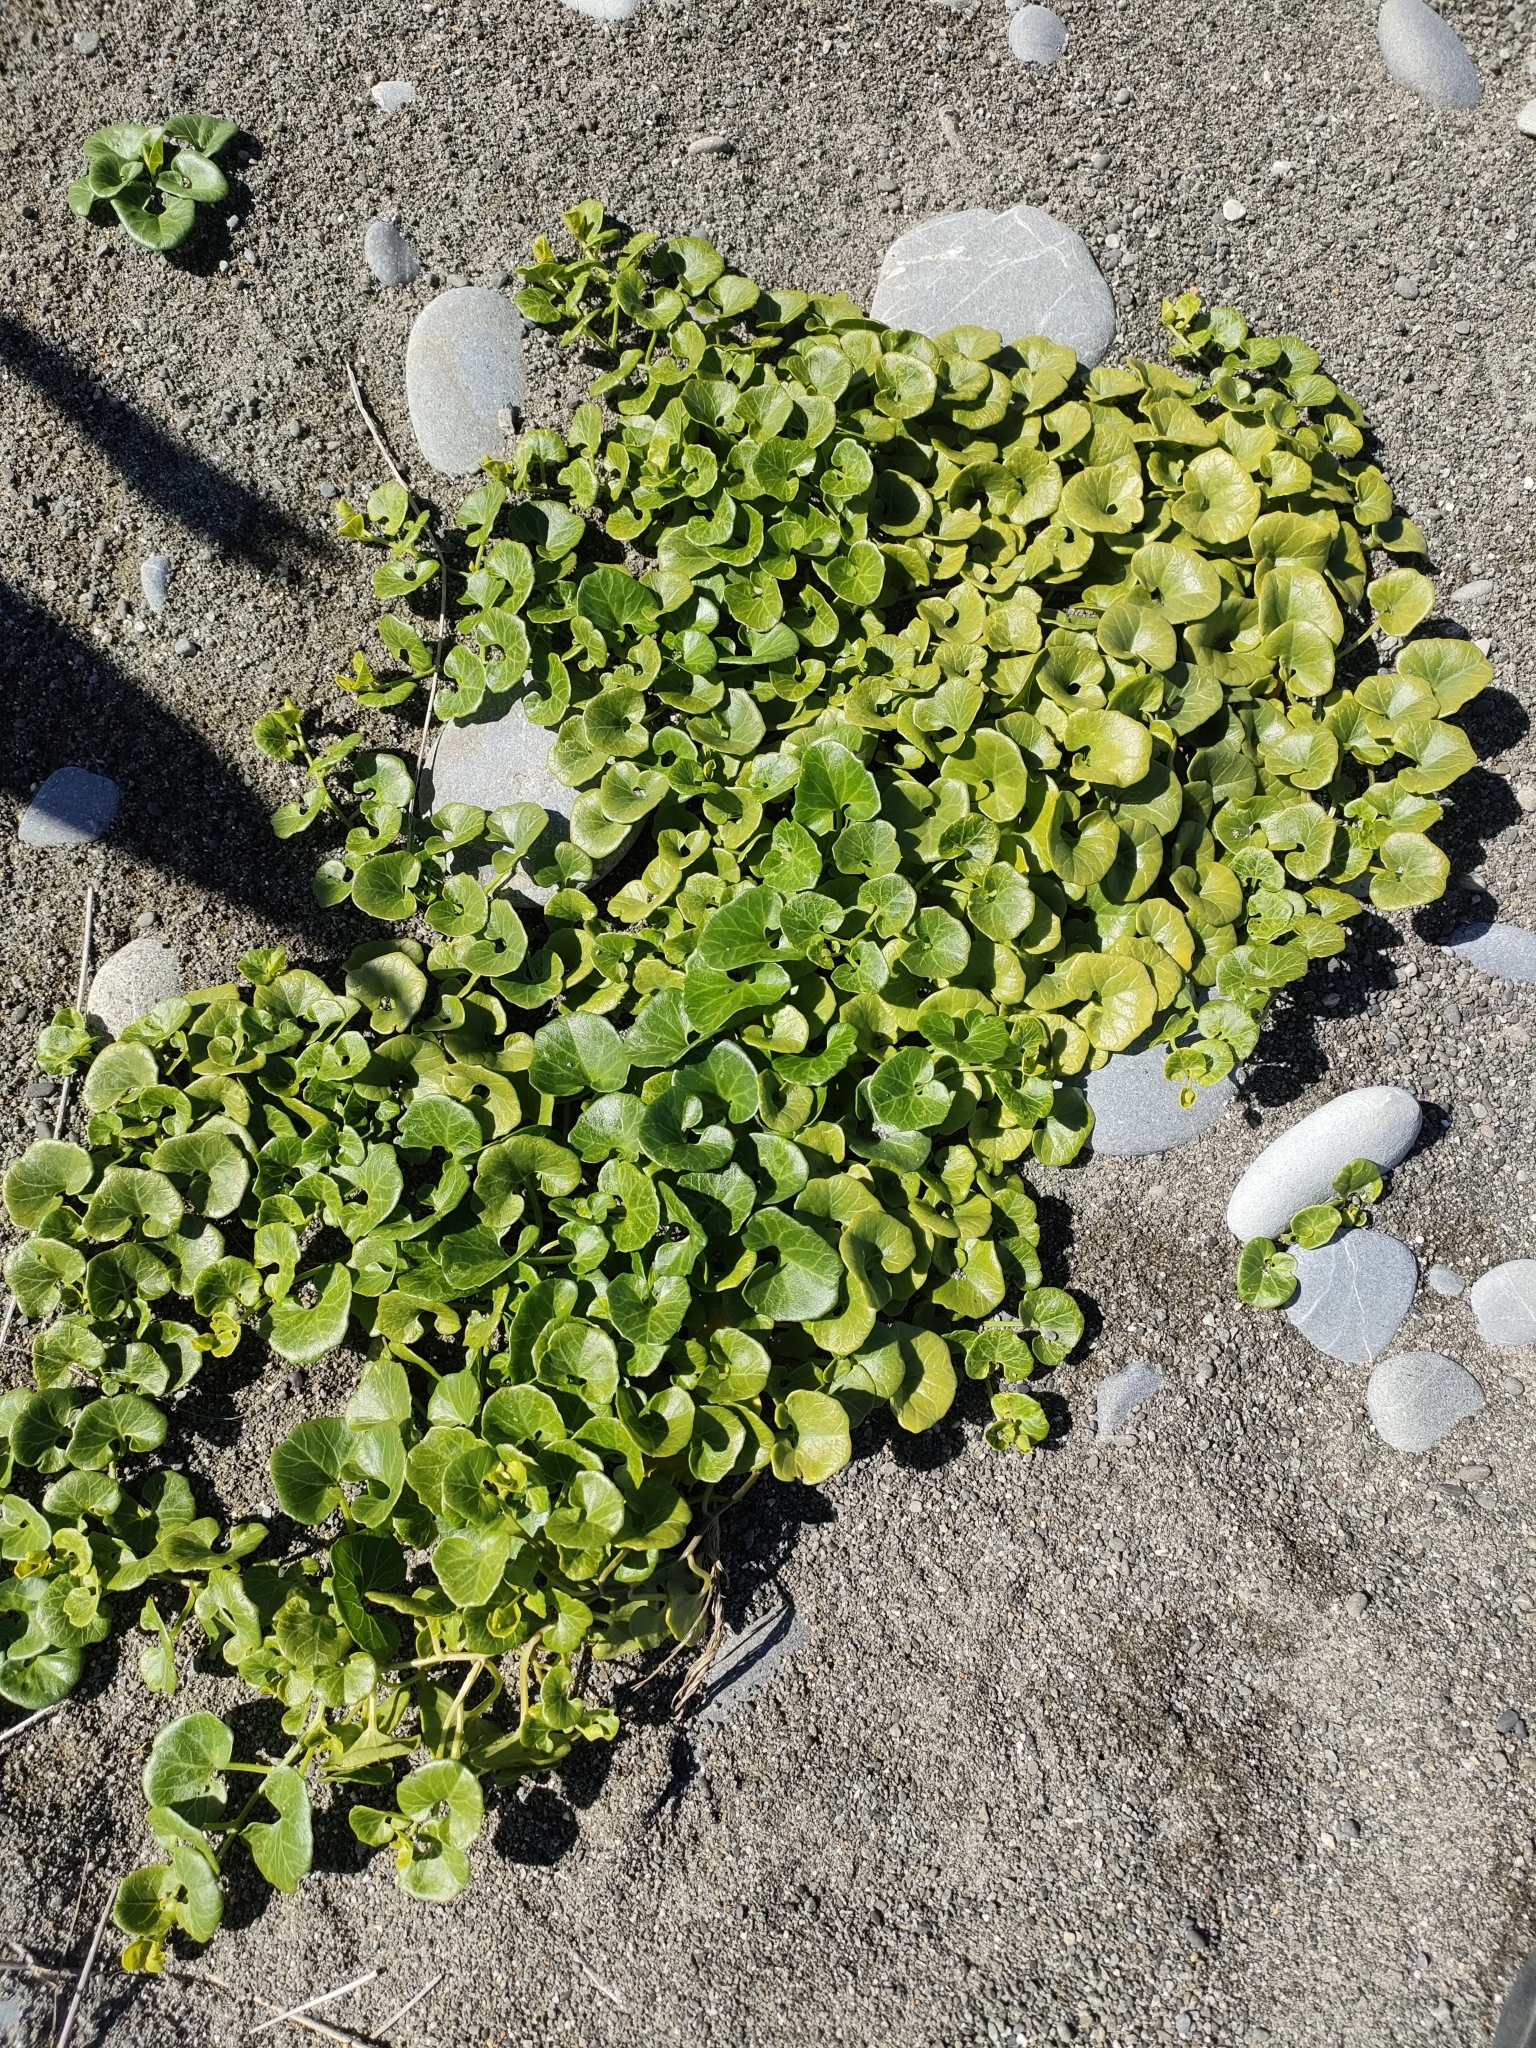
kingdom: Plantae
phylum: Tracheophyta
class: Magnoliopsida
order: Solanales
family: Convolvulaceae
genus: Calystegia
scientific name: Calystegia soldanella
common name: Sea bindweed
